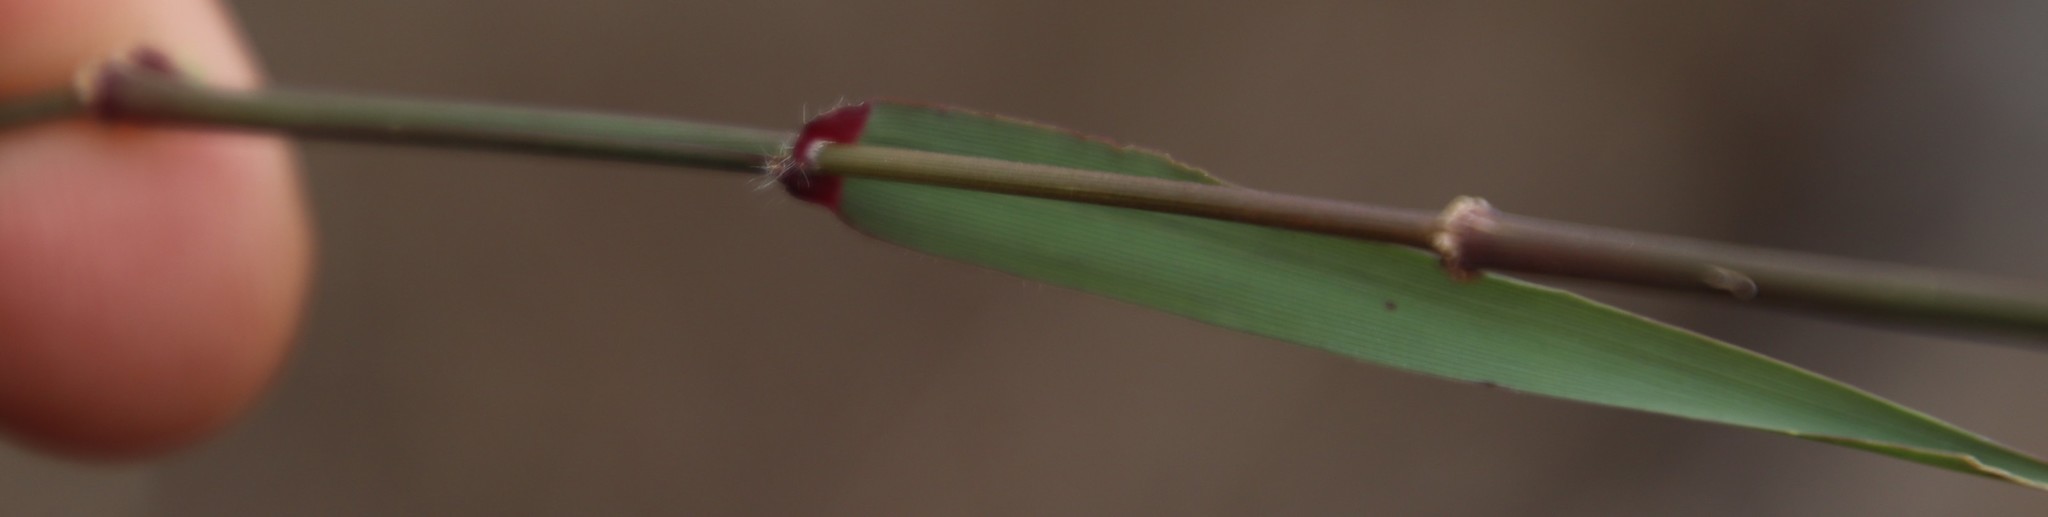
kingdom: Plantae
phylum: Tracheophyta
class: Liliopsida
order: Poales
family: Poaceae
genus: Ehrharta
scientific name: Ehrharta calycina
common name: Perennial veldtgrass
